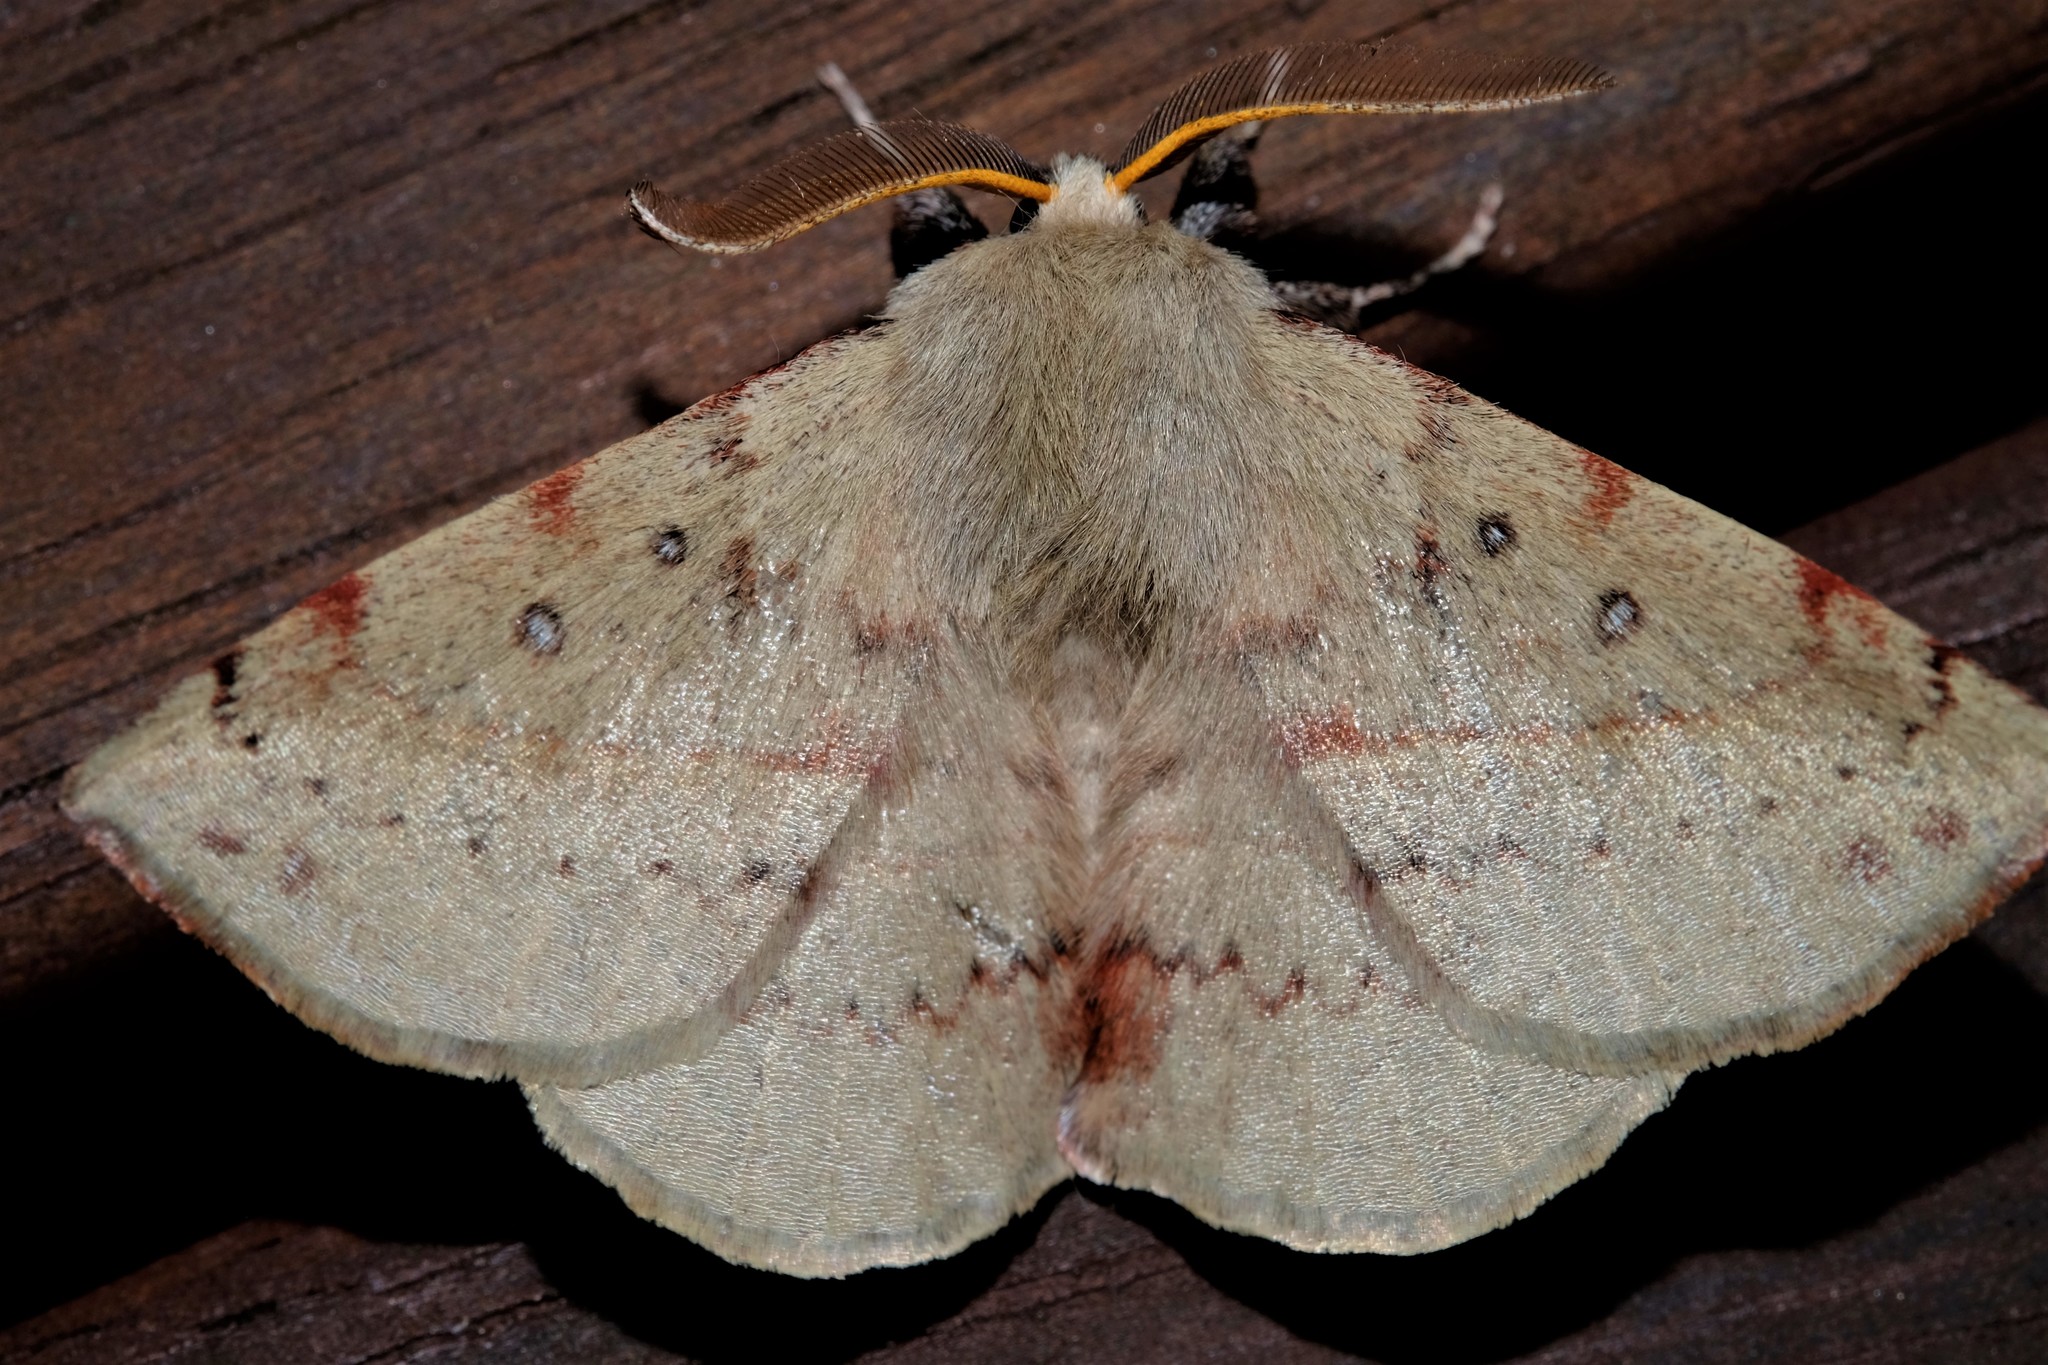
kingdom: Animalia
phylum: Arthropoda
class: Insecta
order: Lepidoptera
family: Anthelidae
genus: Anthela
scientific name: Anthela acuta
